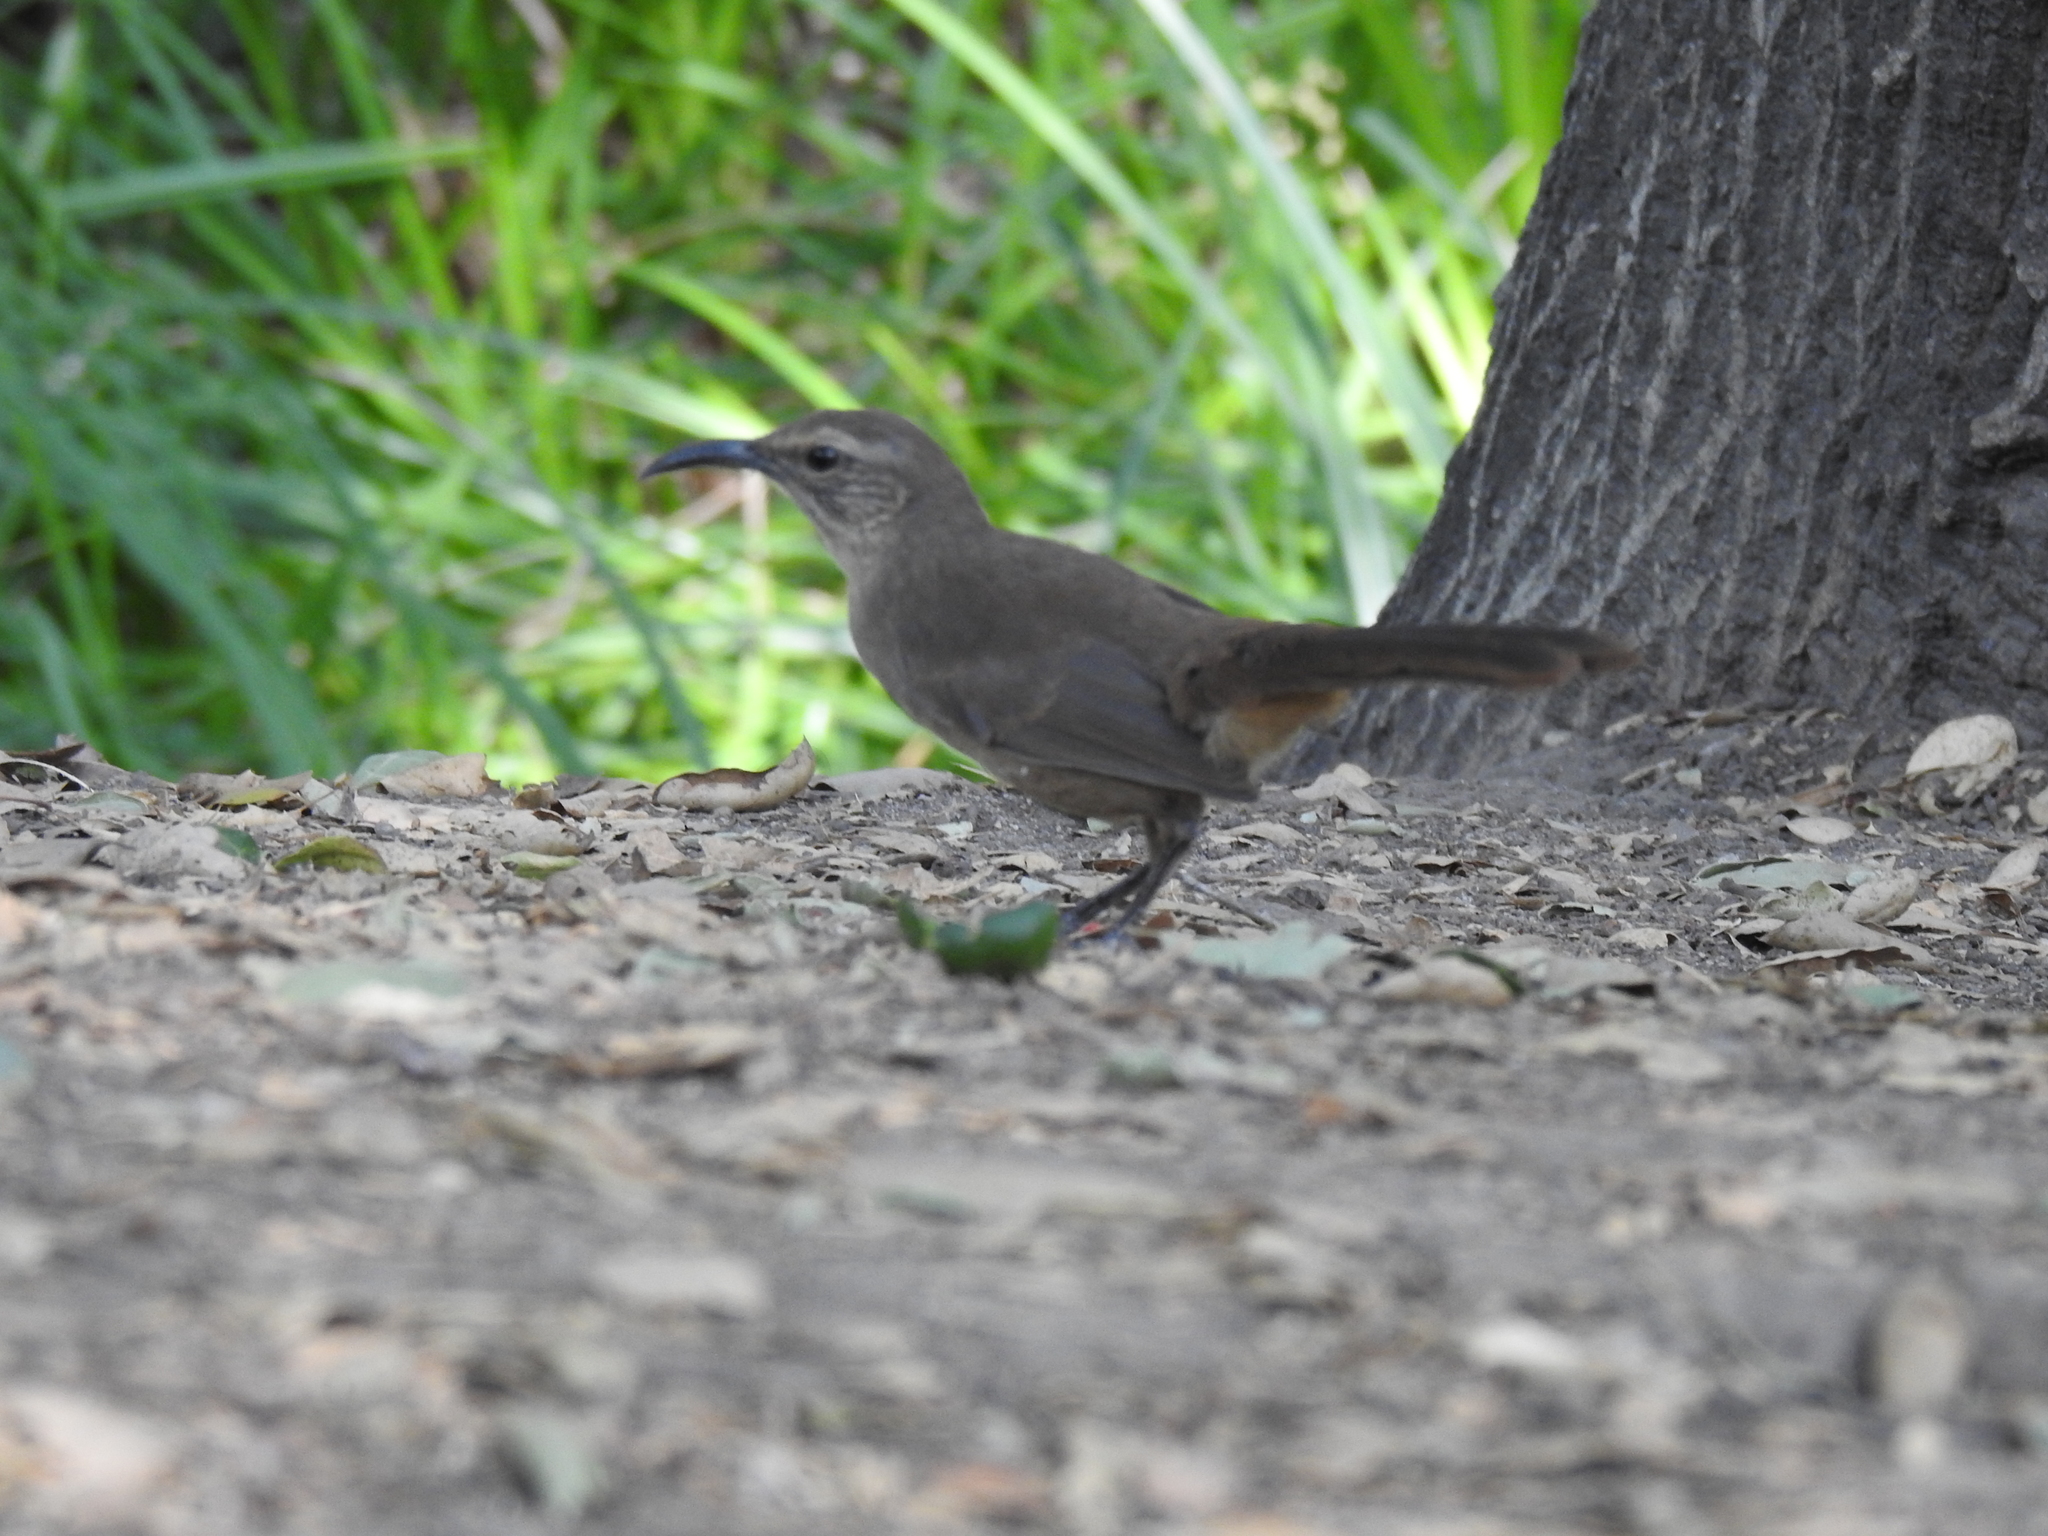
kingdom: Animalia
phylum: Chordata
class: Aves
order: Passeriformes
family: Mimidae
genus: Toxostoma
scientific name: Toxostoma redivivum
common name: California thrasher
